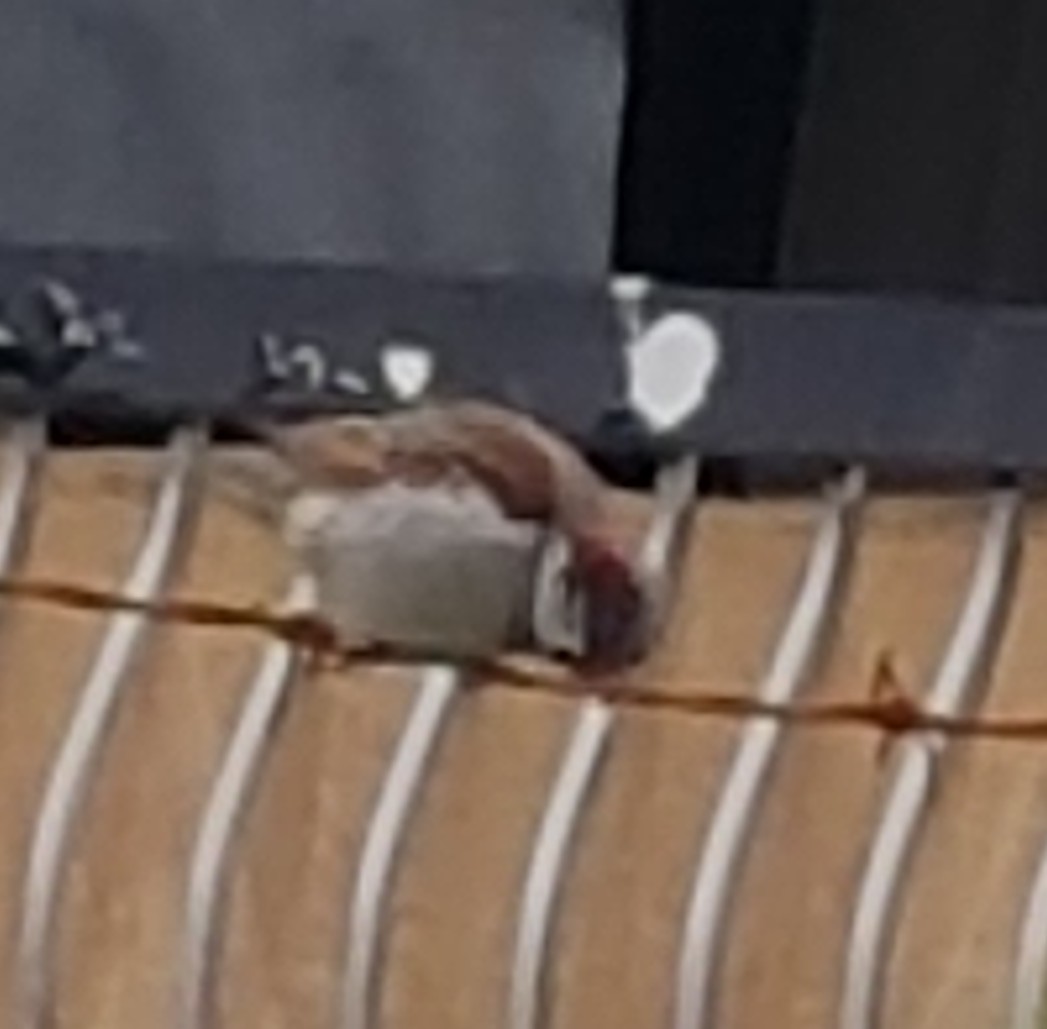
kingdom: Animalia
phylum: Chordata
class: Aves
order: Passeriformes
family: Passeridae
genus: Passer
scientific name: Passer domesticus
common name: House sparrow
